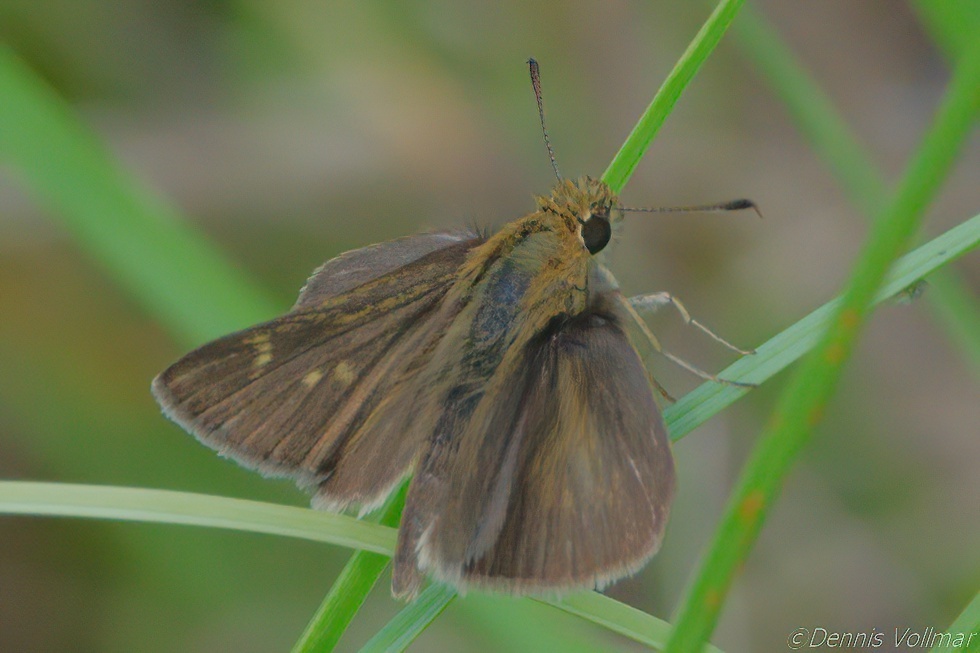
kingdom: Animalia
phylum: Arthropoda
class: Insecta
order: Lepidoptera
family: Hesperiidae
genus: Nastra
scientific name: Nastra
